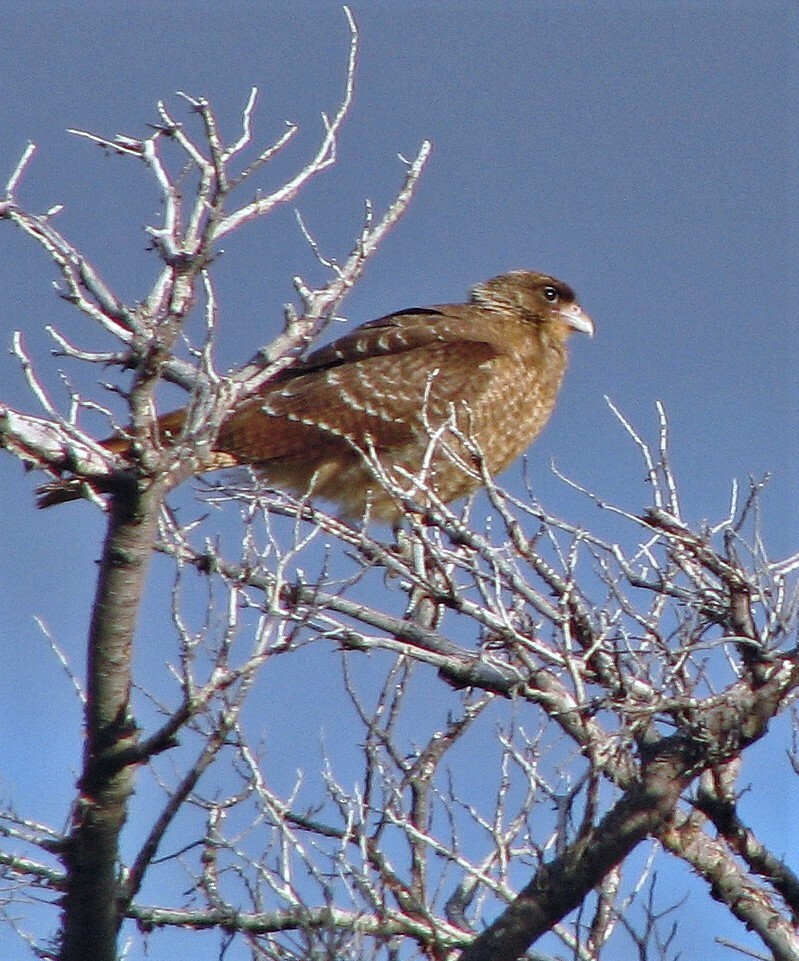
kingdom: Animalia
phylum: Chordata
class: Aves
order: Falconiformes
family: Falconidae
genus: Daptrius
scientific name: Daptrius
